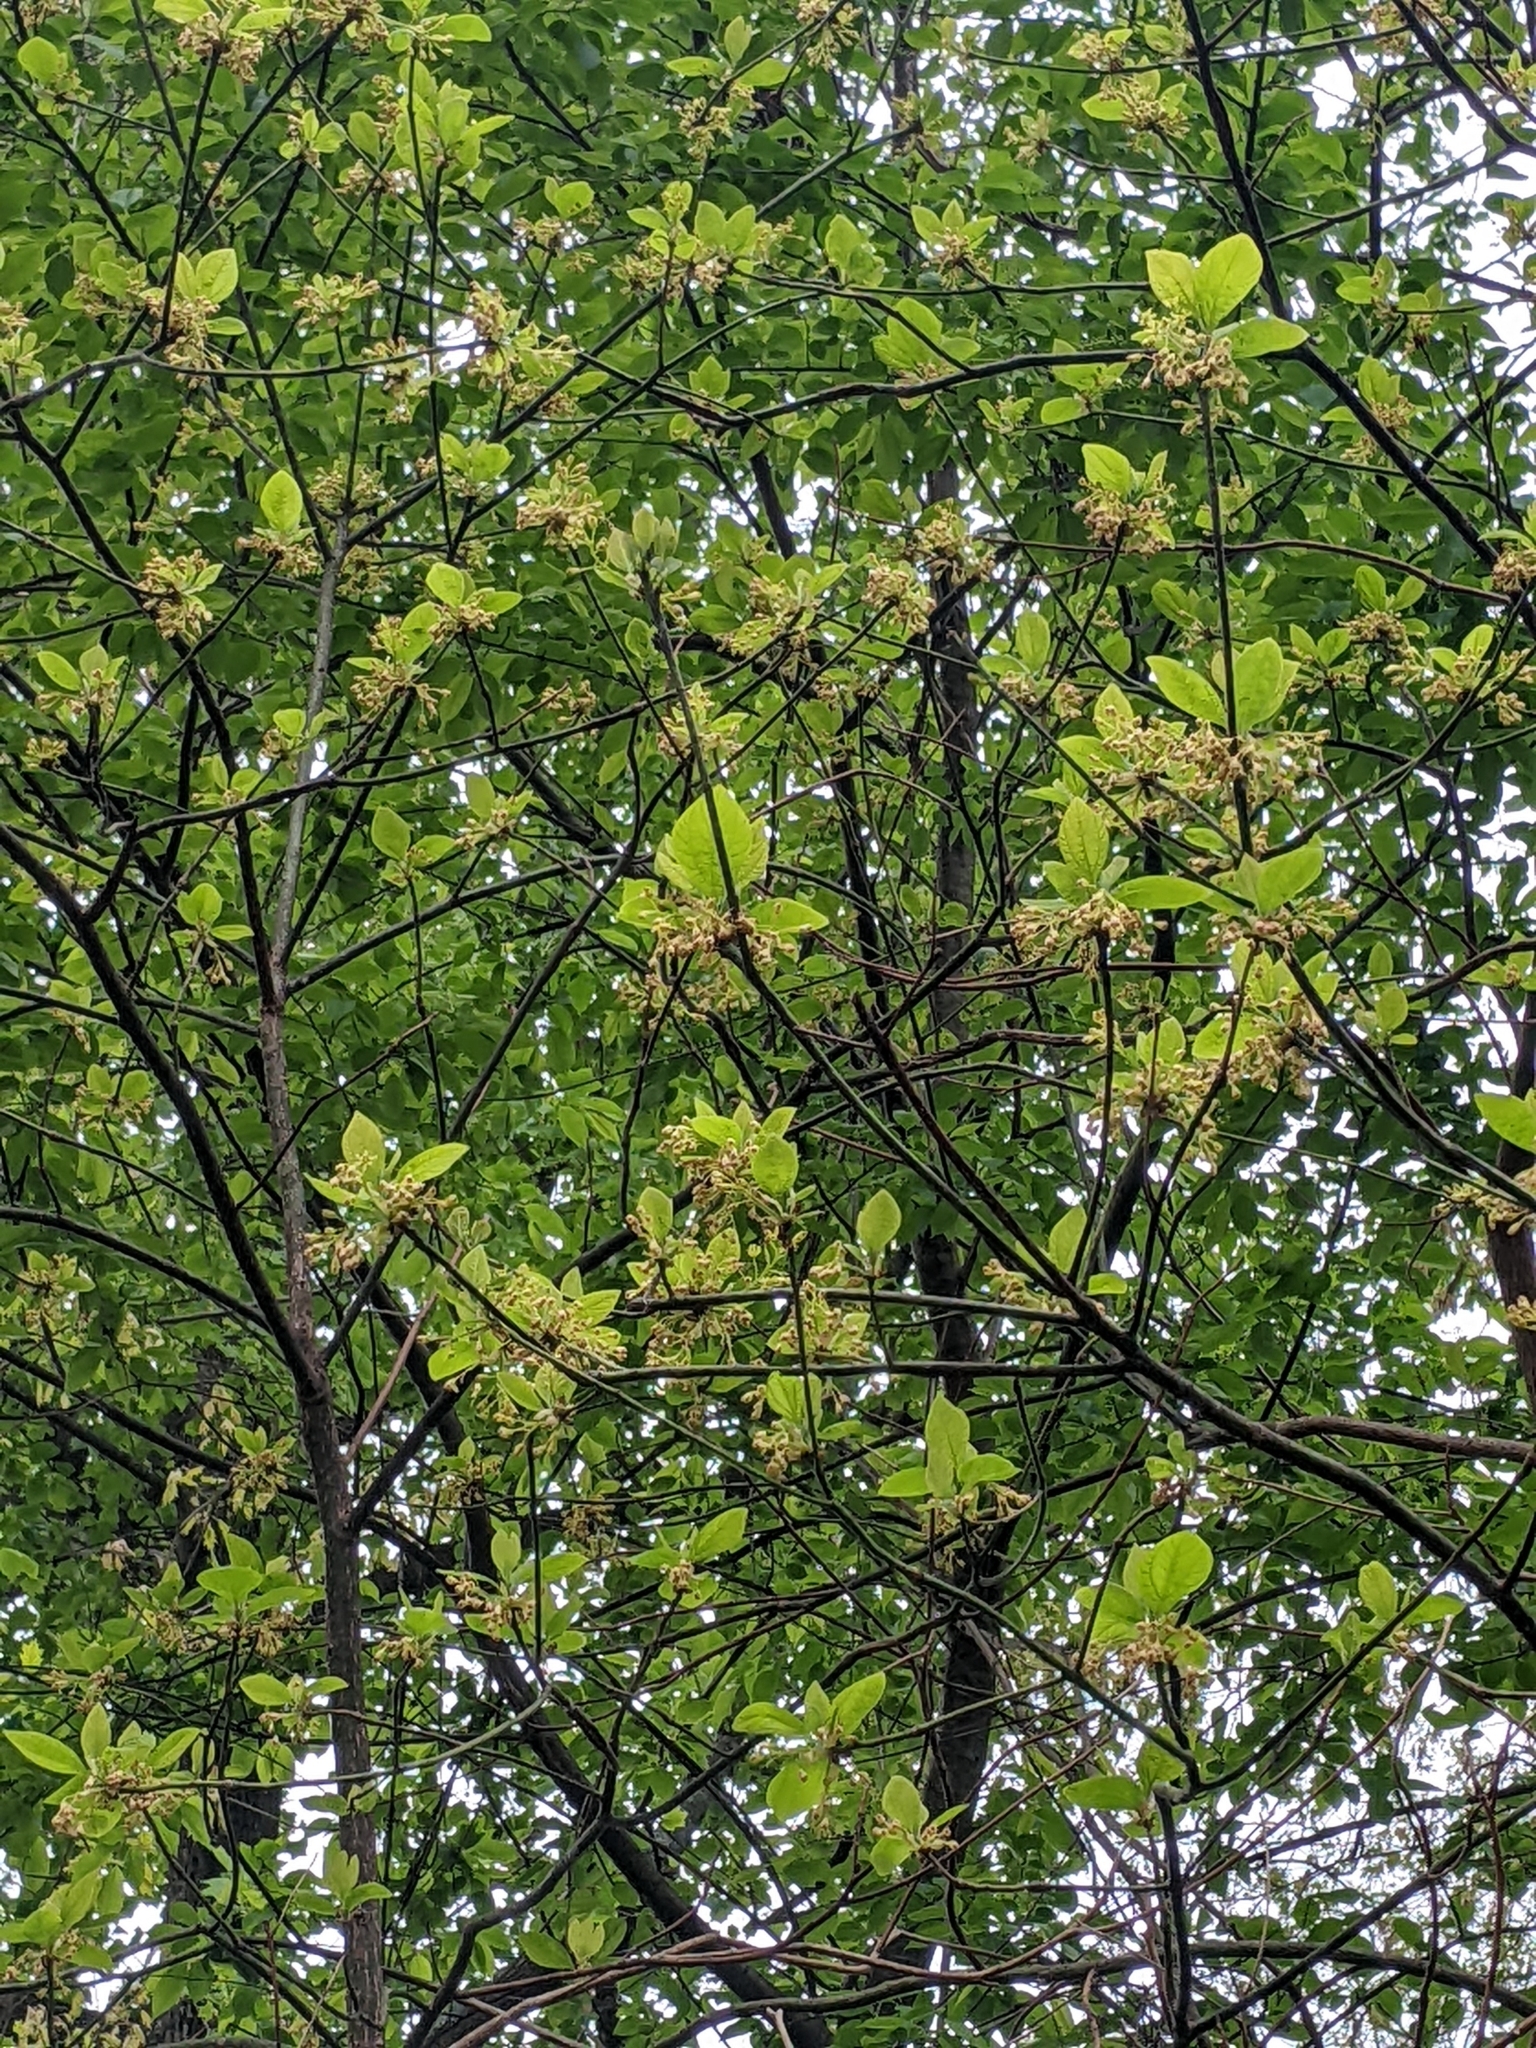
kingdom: Plantae
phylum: Tracheophyta
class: Magnoliopsida
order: Laurales
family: Lauraceae
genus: Sassafras
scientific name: Sassafras albidum
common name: Sassafras
